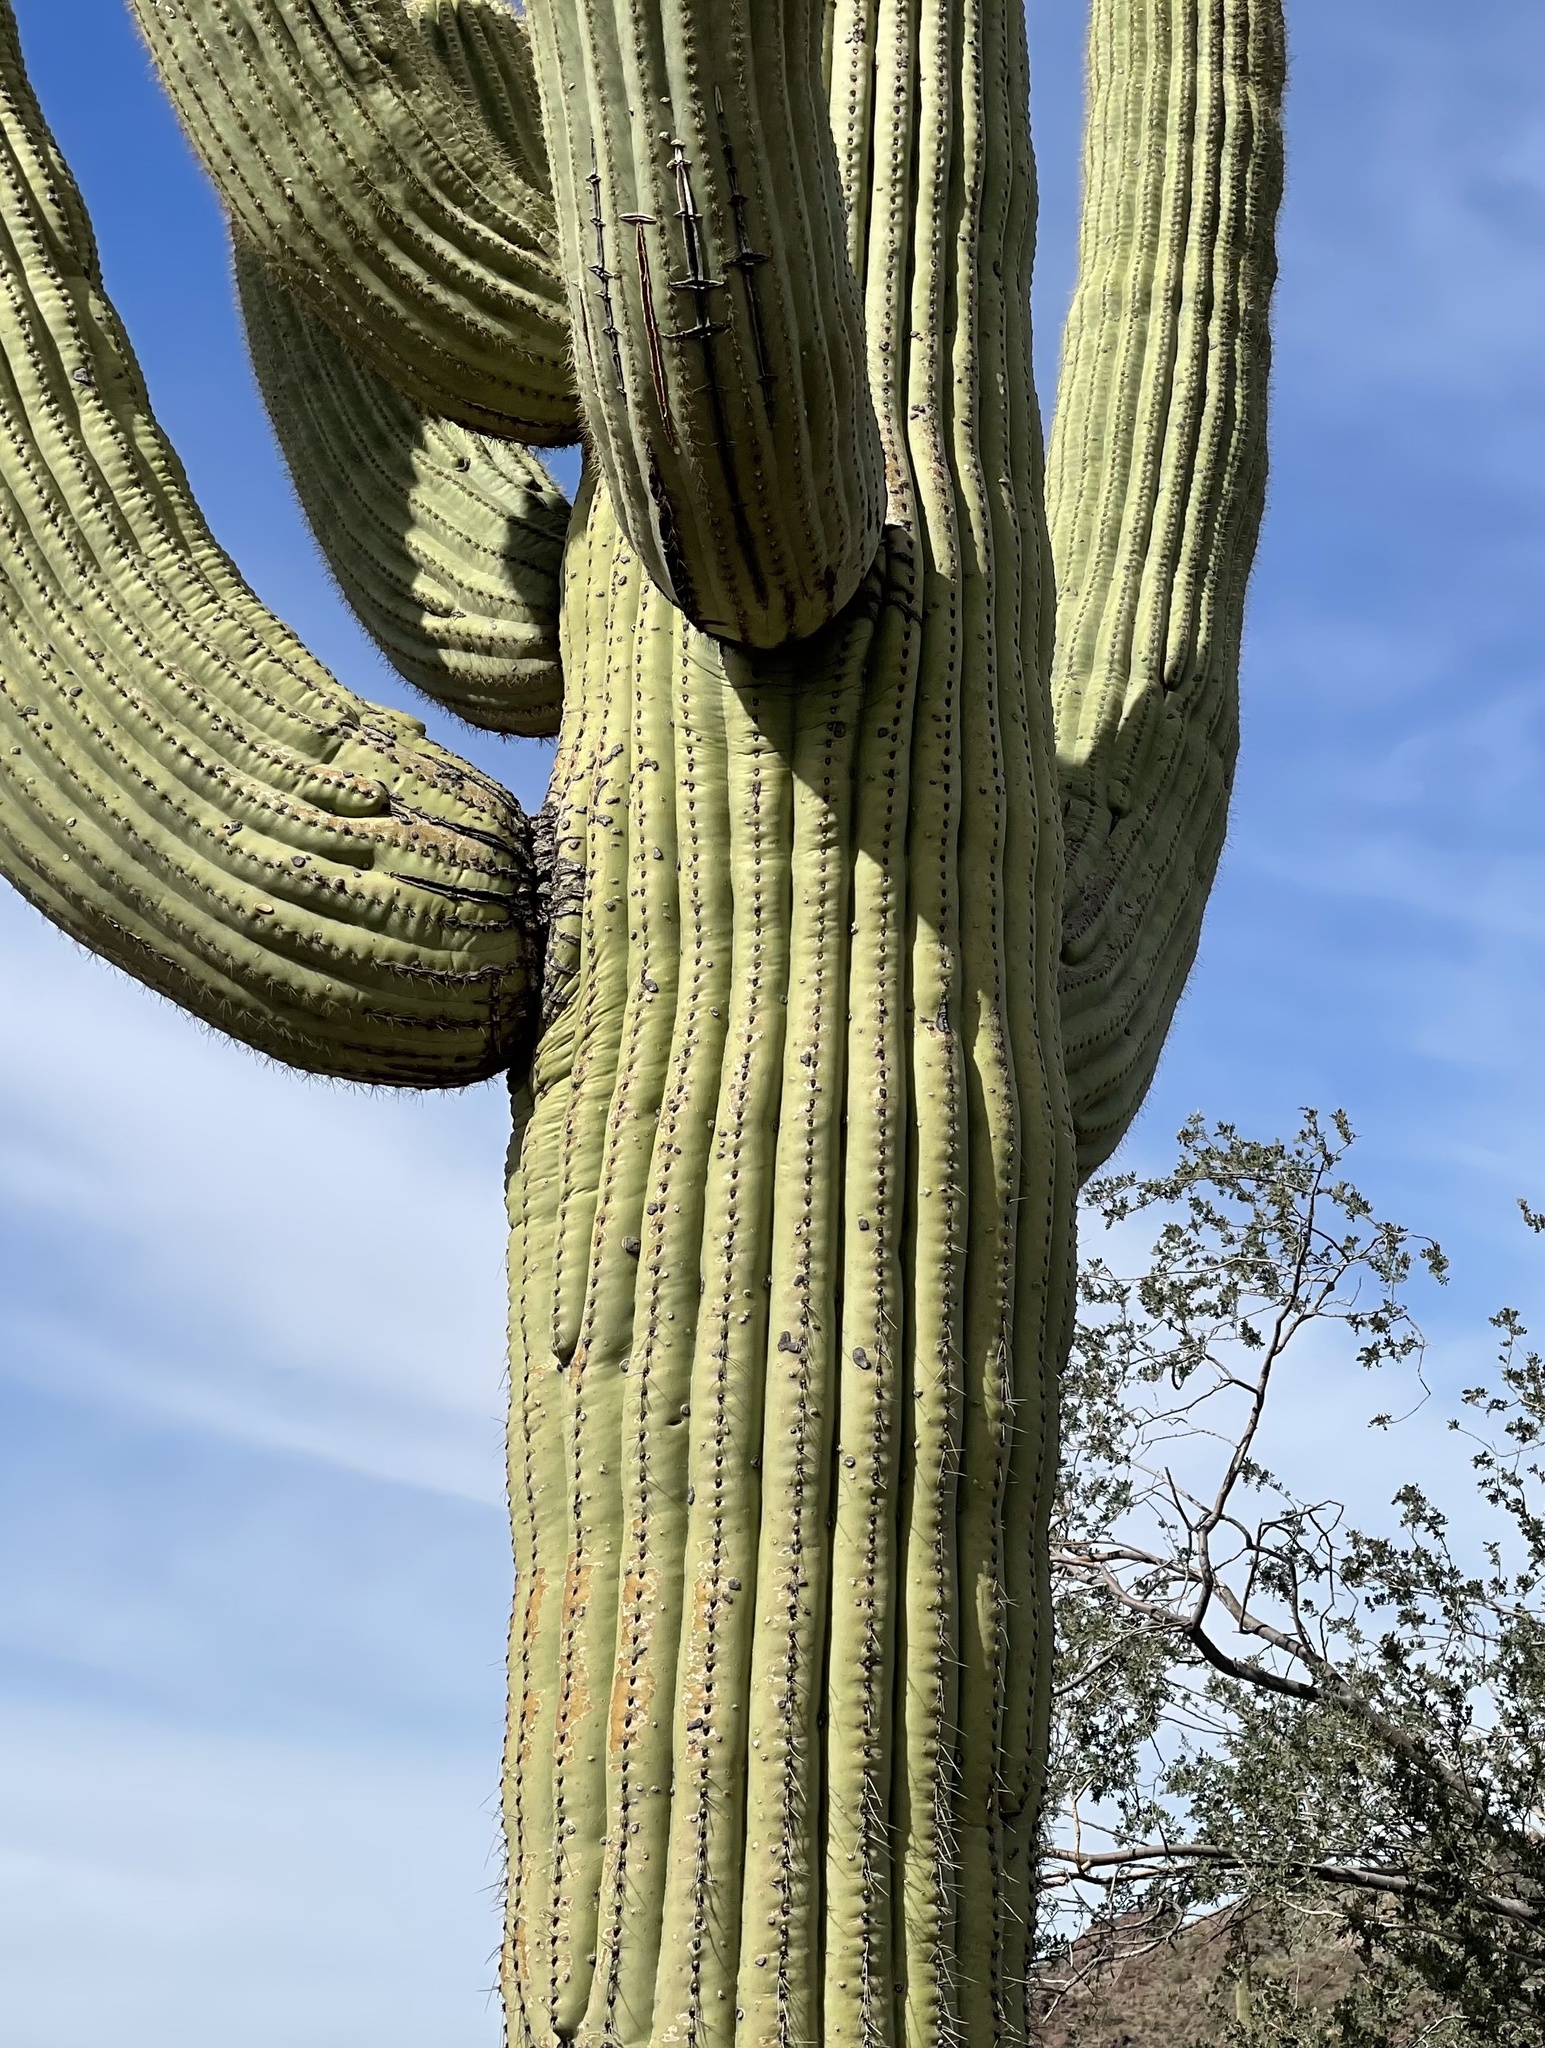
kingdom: Plantae
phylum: Tracheophyta
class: Magnoliopsida
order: Caryophyllales
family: Cactaceae
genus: Carnegiea
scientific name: Carnegiea gigantea
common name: Saguaro
